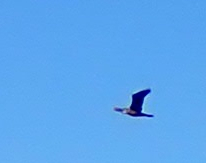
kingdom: Animalia
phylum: Chordata
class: Aves
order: Suliformes
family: Phalacrocoracidae
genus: Phalacrocorax
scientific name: Phalacrocorax auritus
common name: Double-crested cormorant
